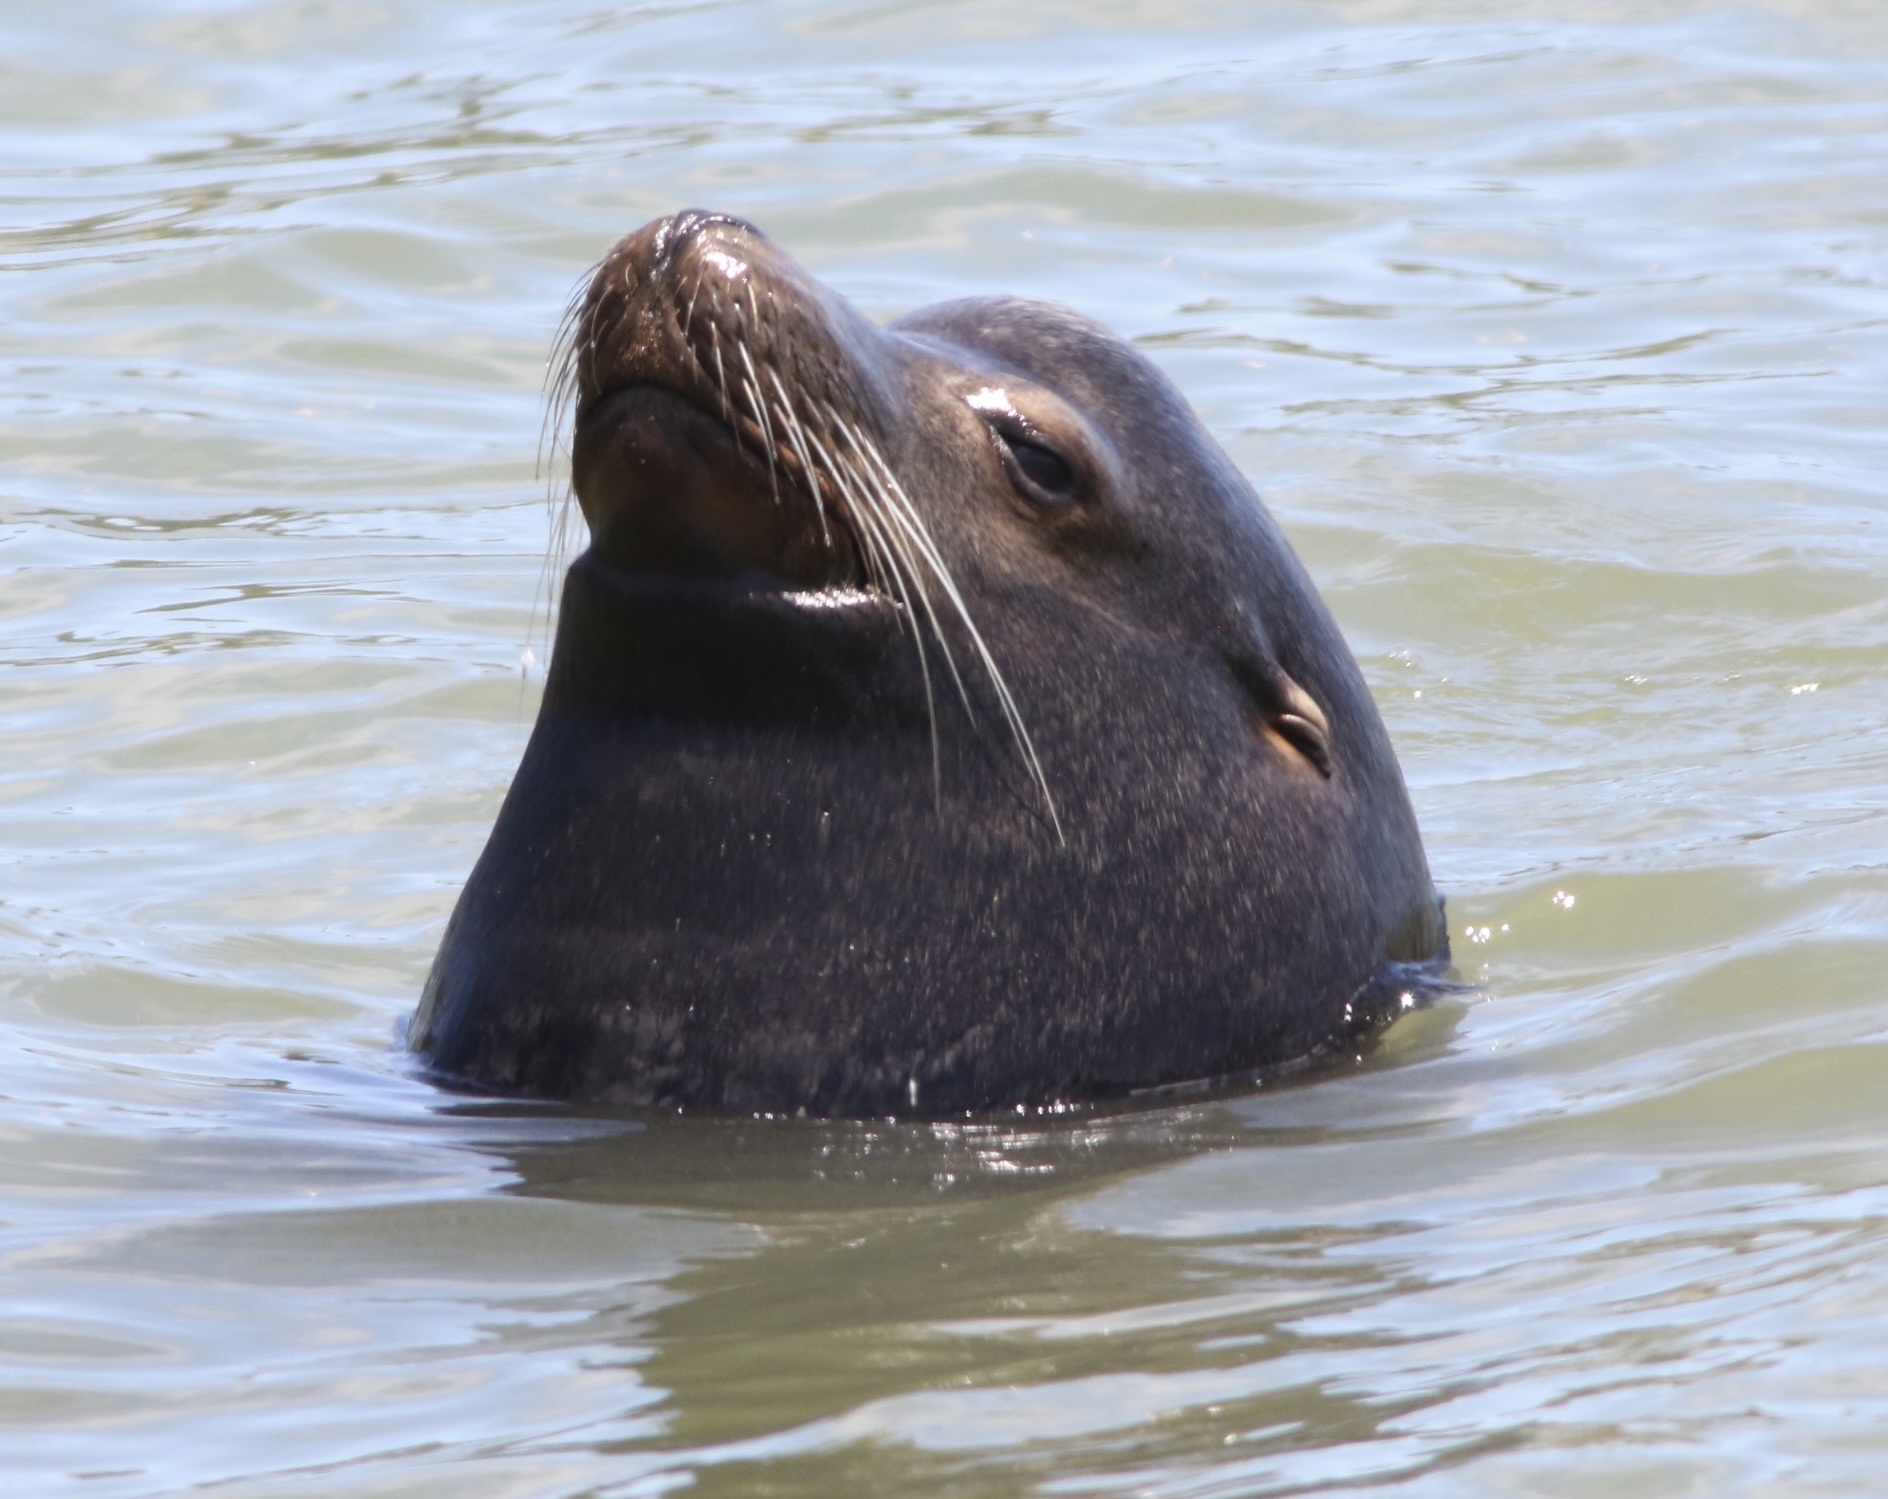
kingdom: Animalia
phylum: Chordata
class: Mammalia
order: Carnivora
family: Otariidae
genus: Zalophus
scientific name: Zalophus californianus
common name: California sea lion
